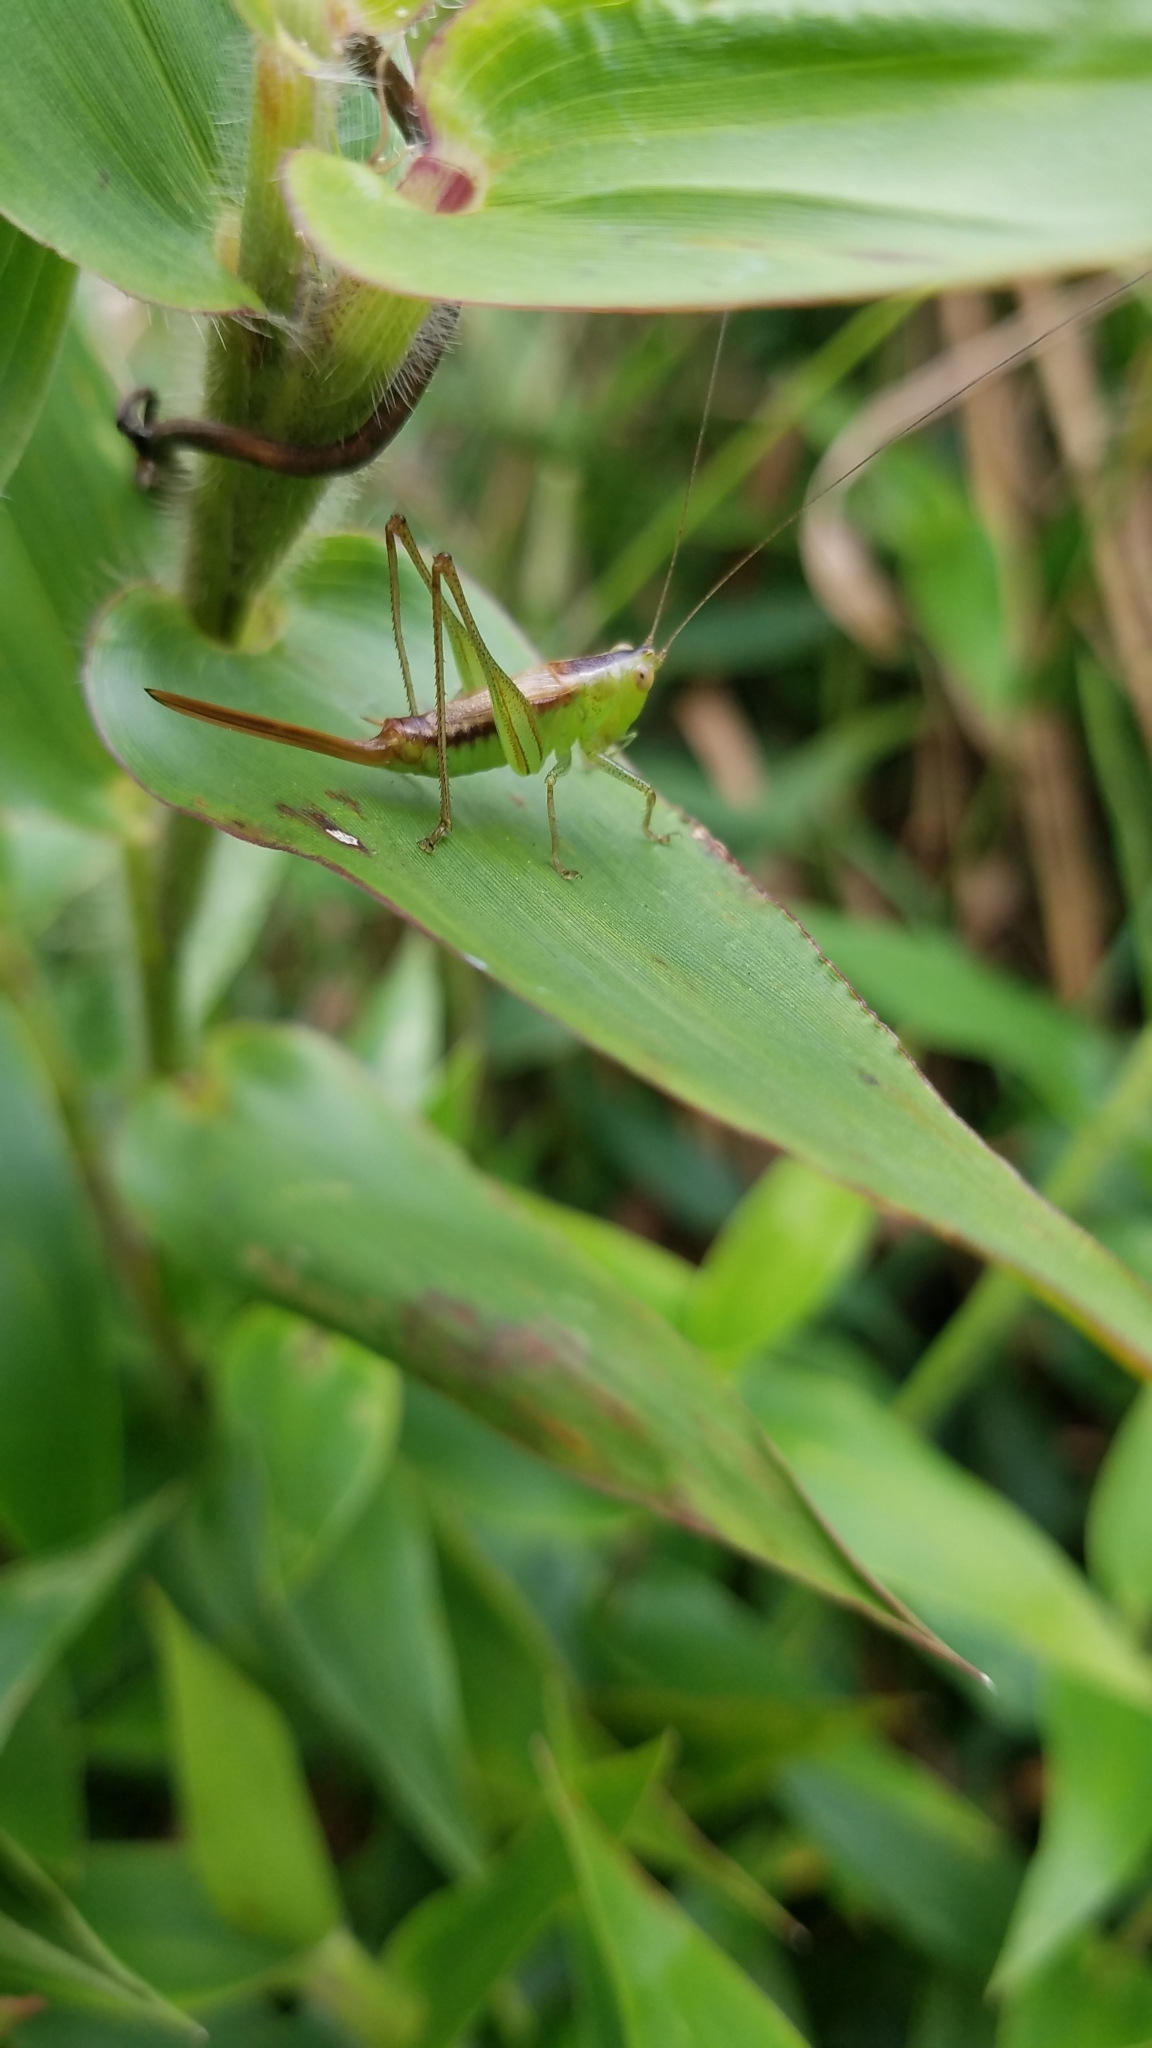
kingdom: Animalia
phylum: Arthropoda
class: Insecta
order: Orthoptera
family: Tettigoniidae
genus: Conocephalus
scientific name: Conocephalus brevipennis
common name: Short-winged meadow katydid
